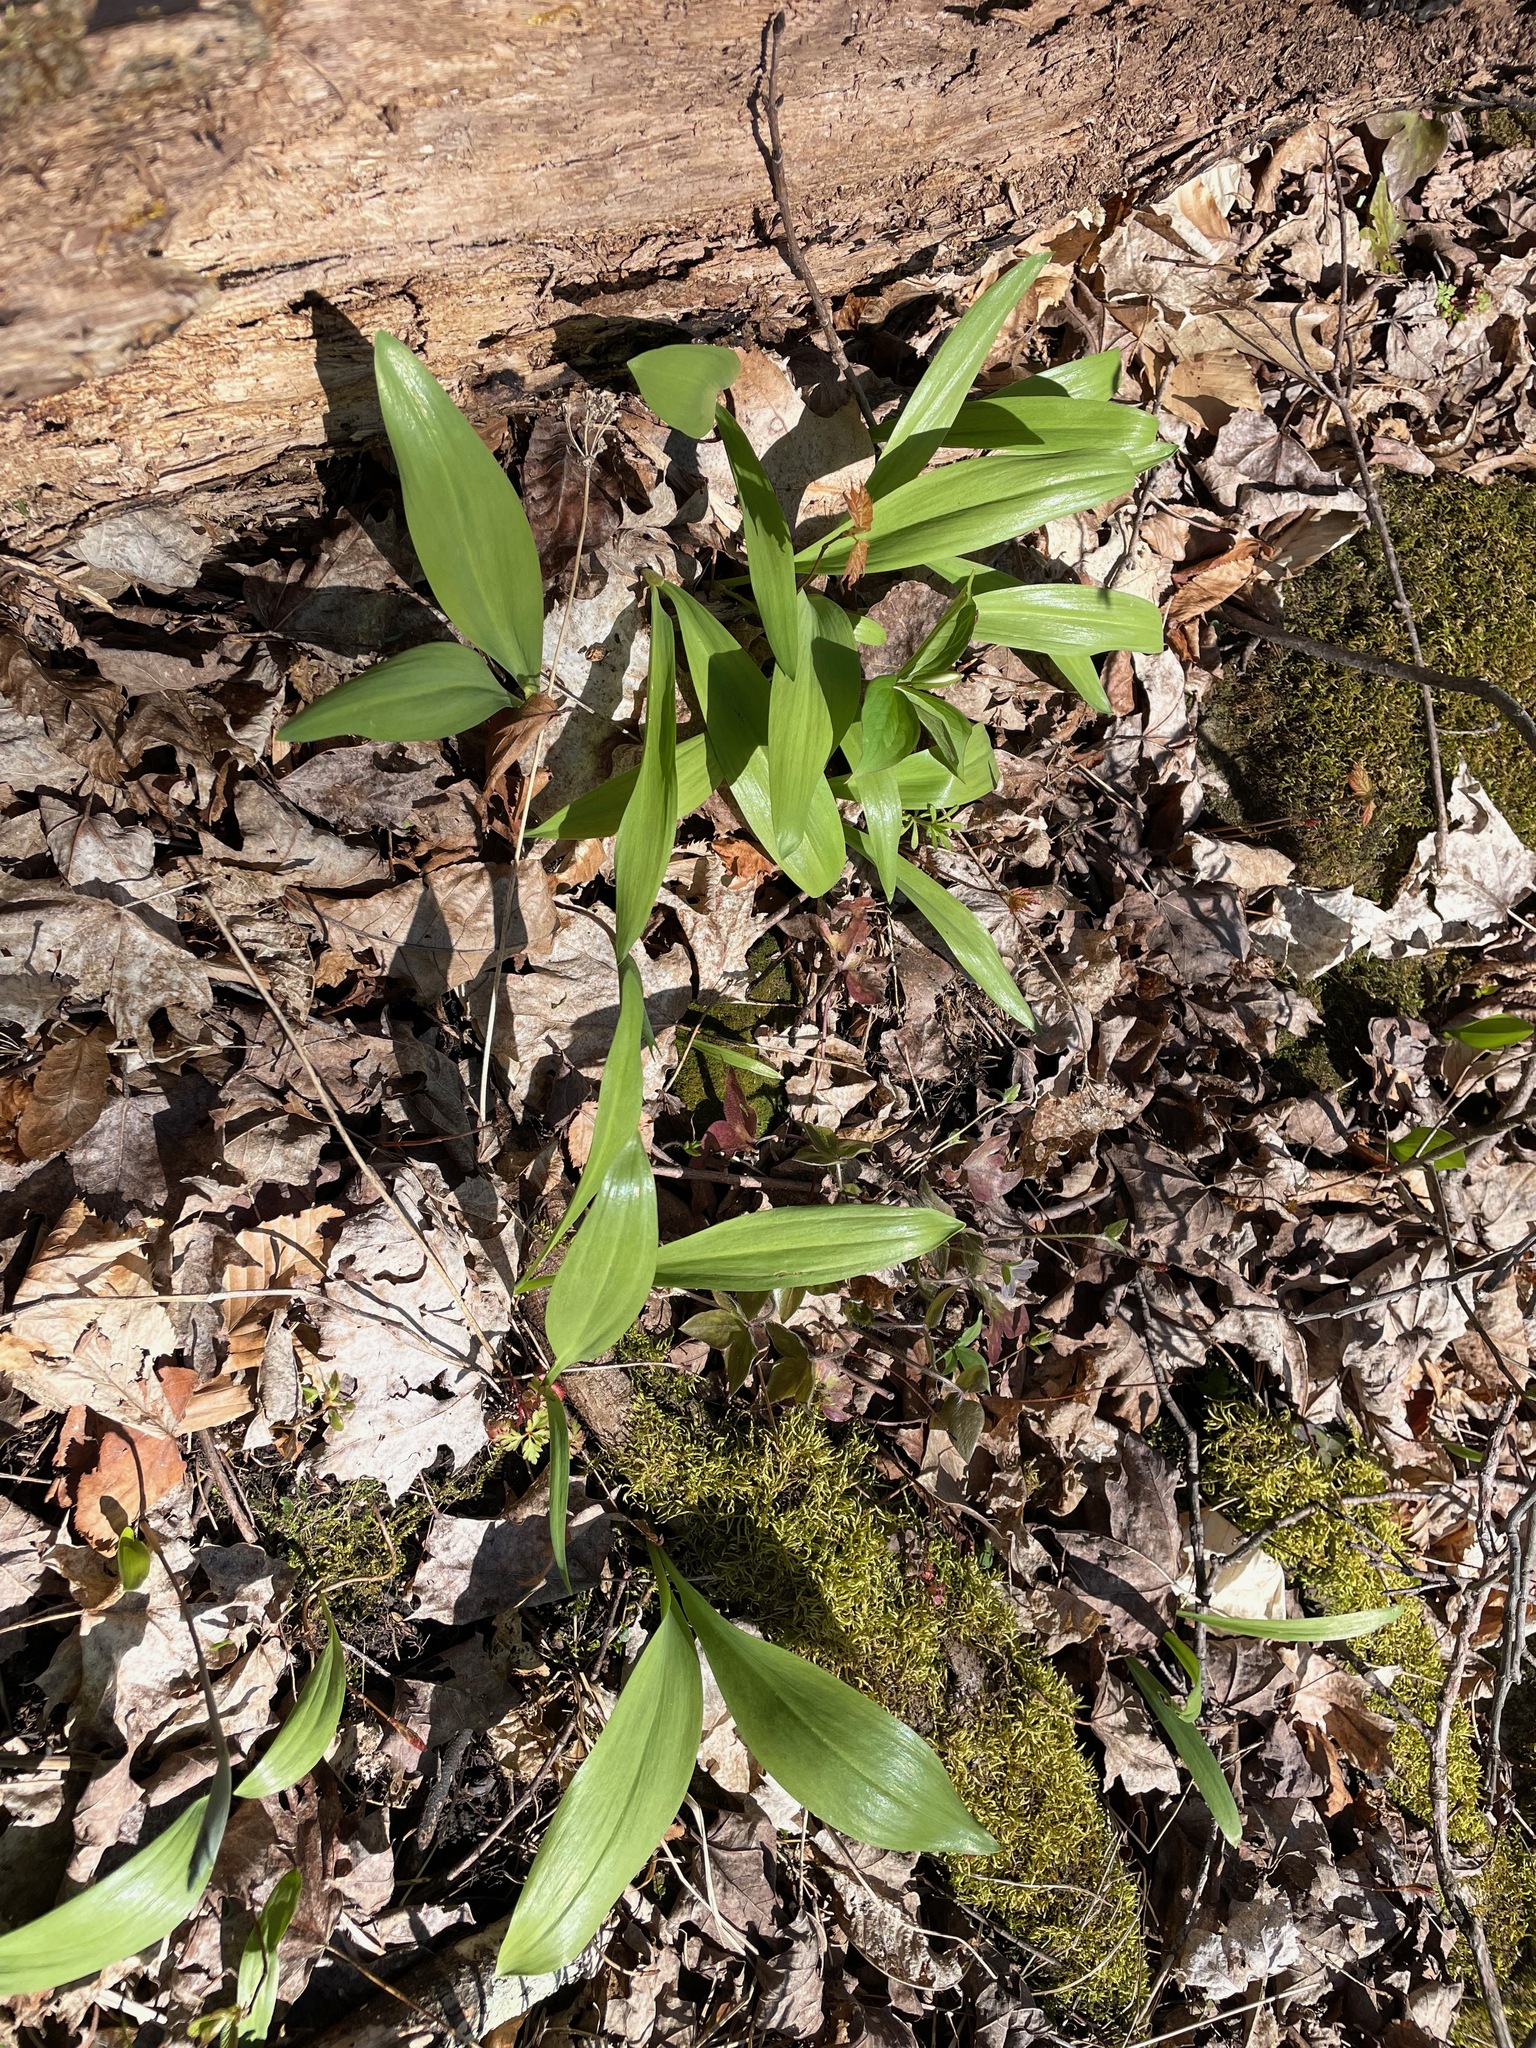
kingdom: Plantae
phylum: Tracheophyta
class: Liliopsida
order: Asparagales
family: Amaryllidaceae
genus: Allium
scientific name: Allium tricoccum
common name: Ramp
